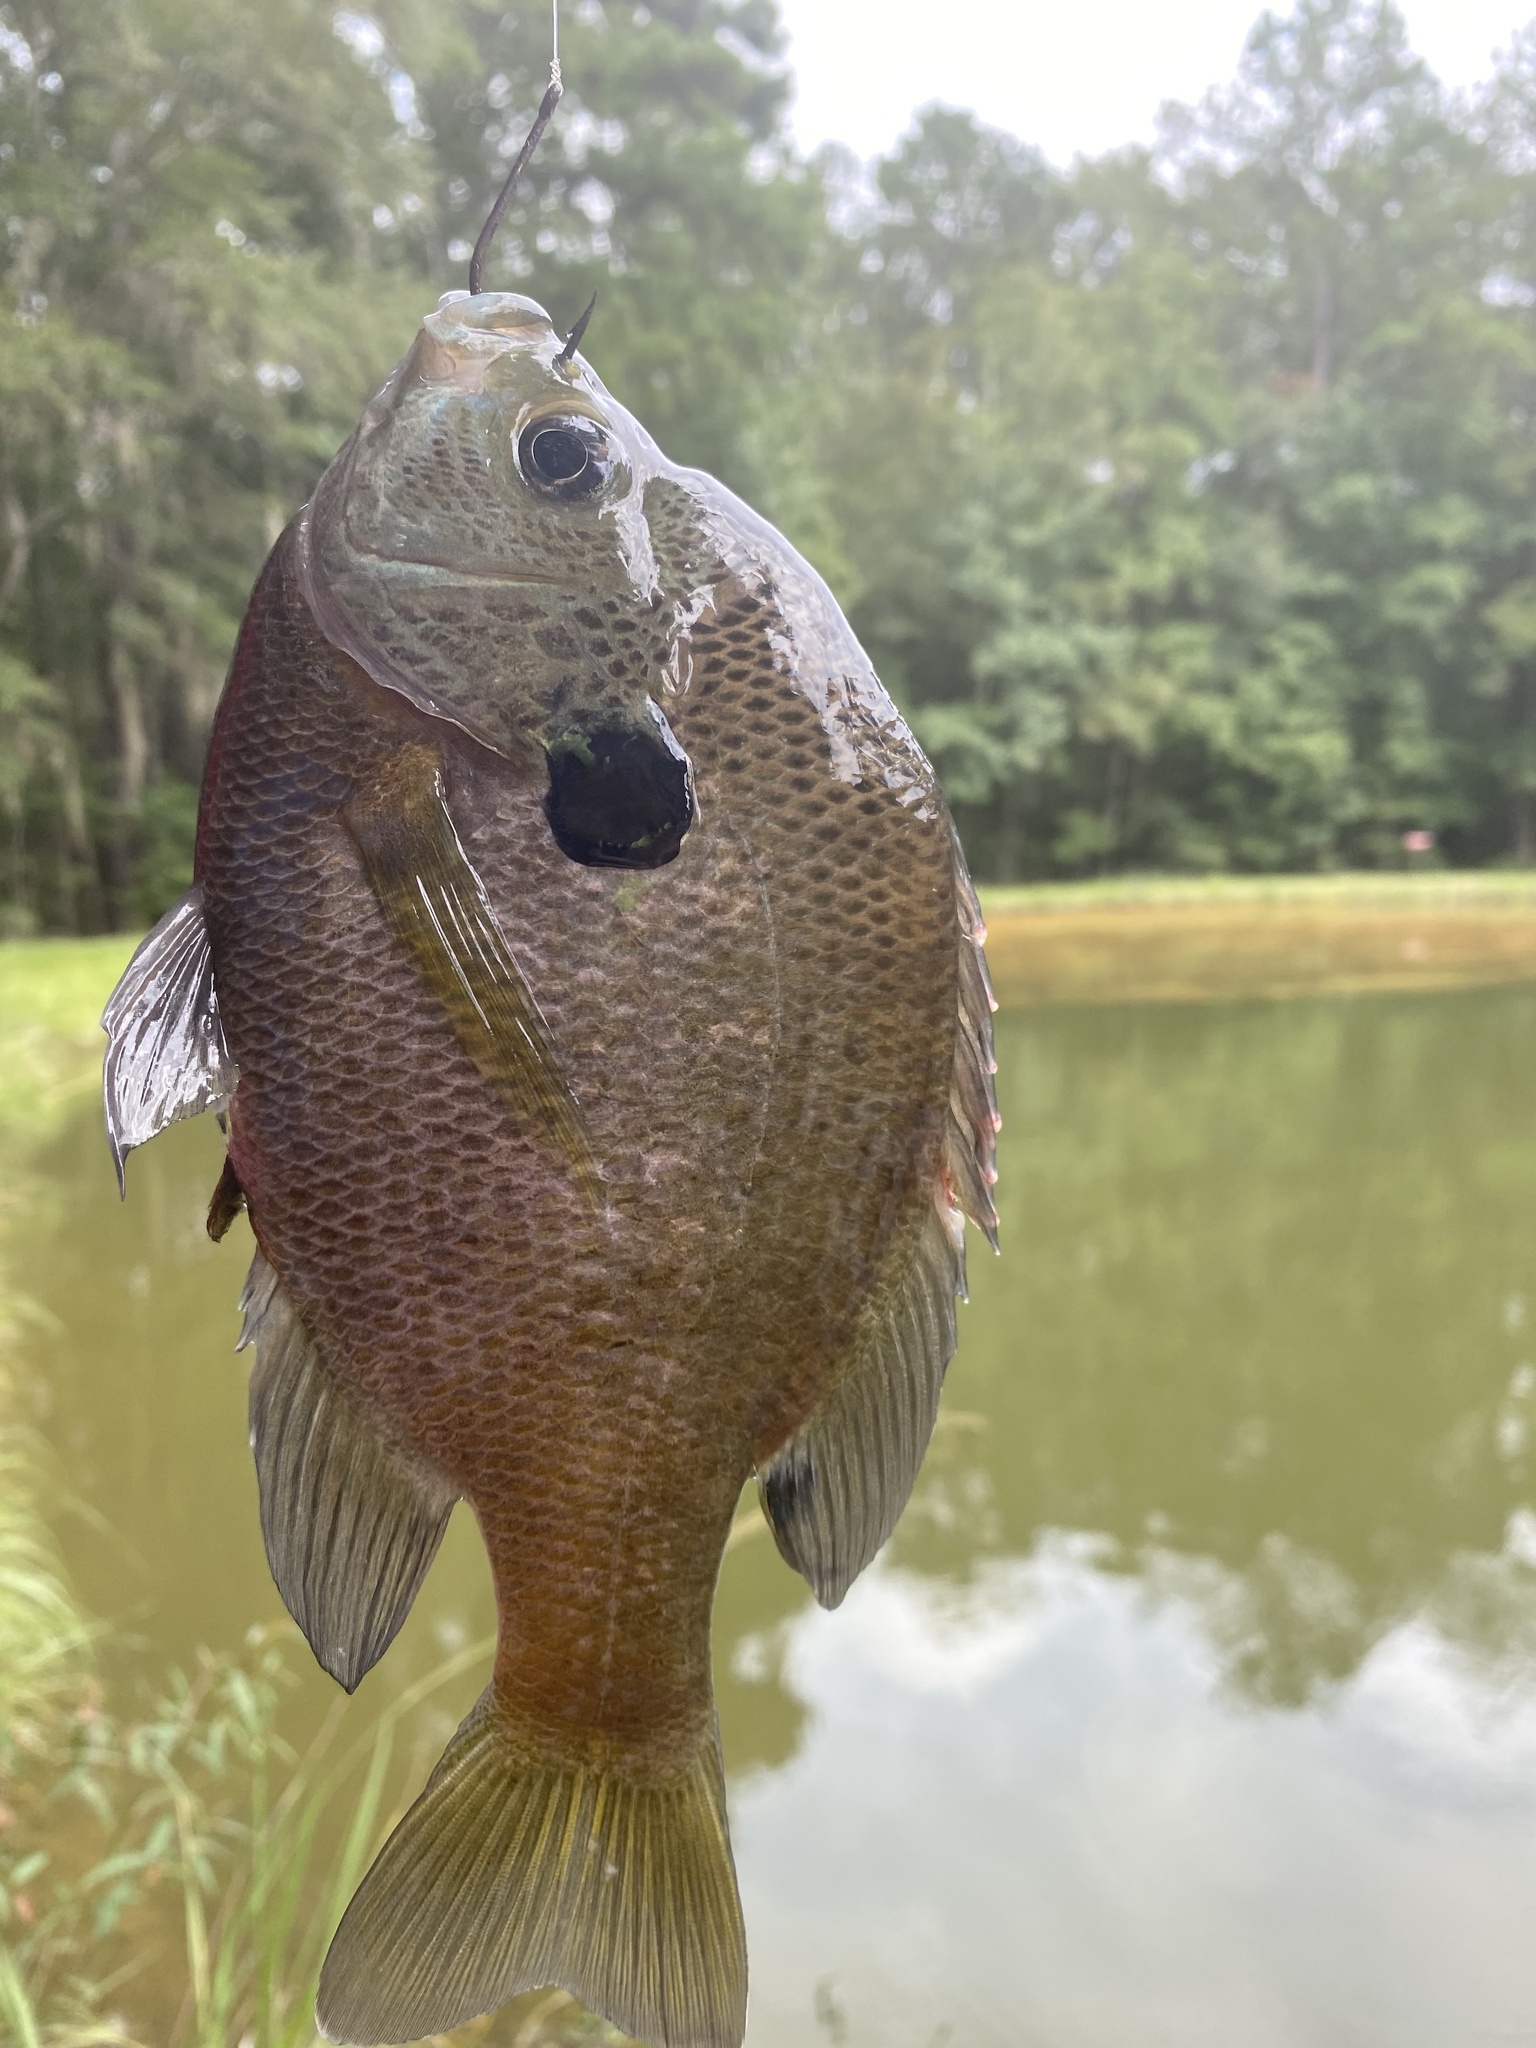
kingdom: Animalia
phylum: Chordata
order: Perciformes
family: Centrarchidae
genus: Lepomis
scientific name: Lepomis macrochirus
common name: Bluegill
